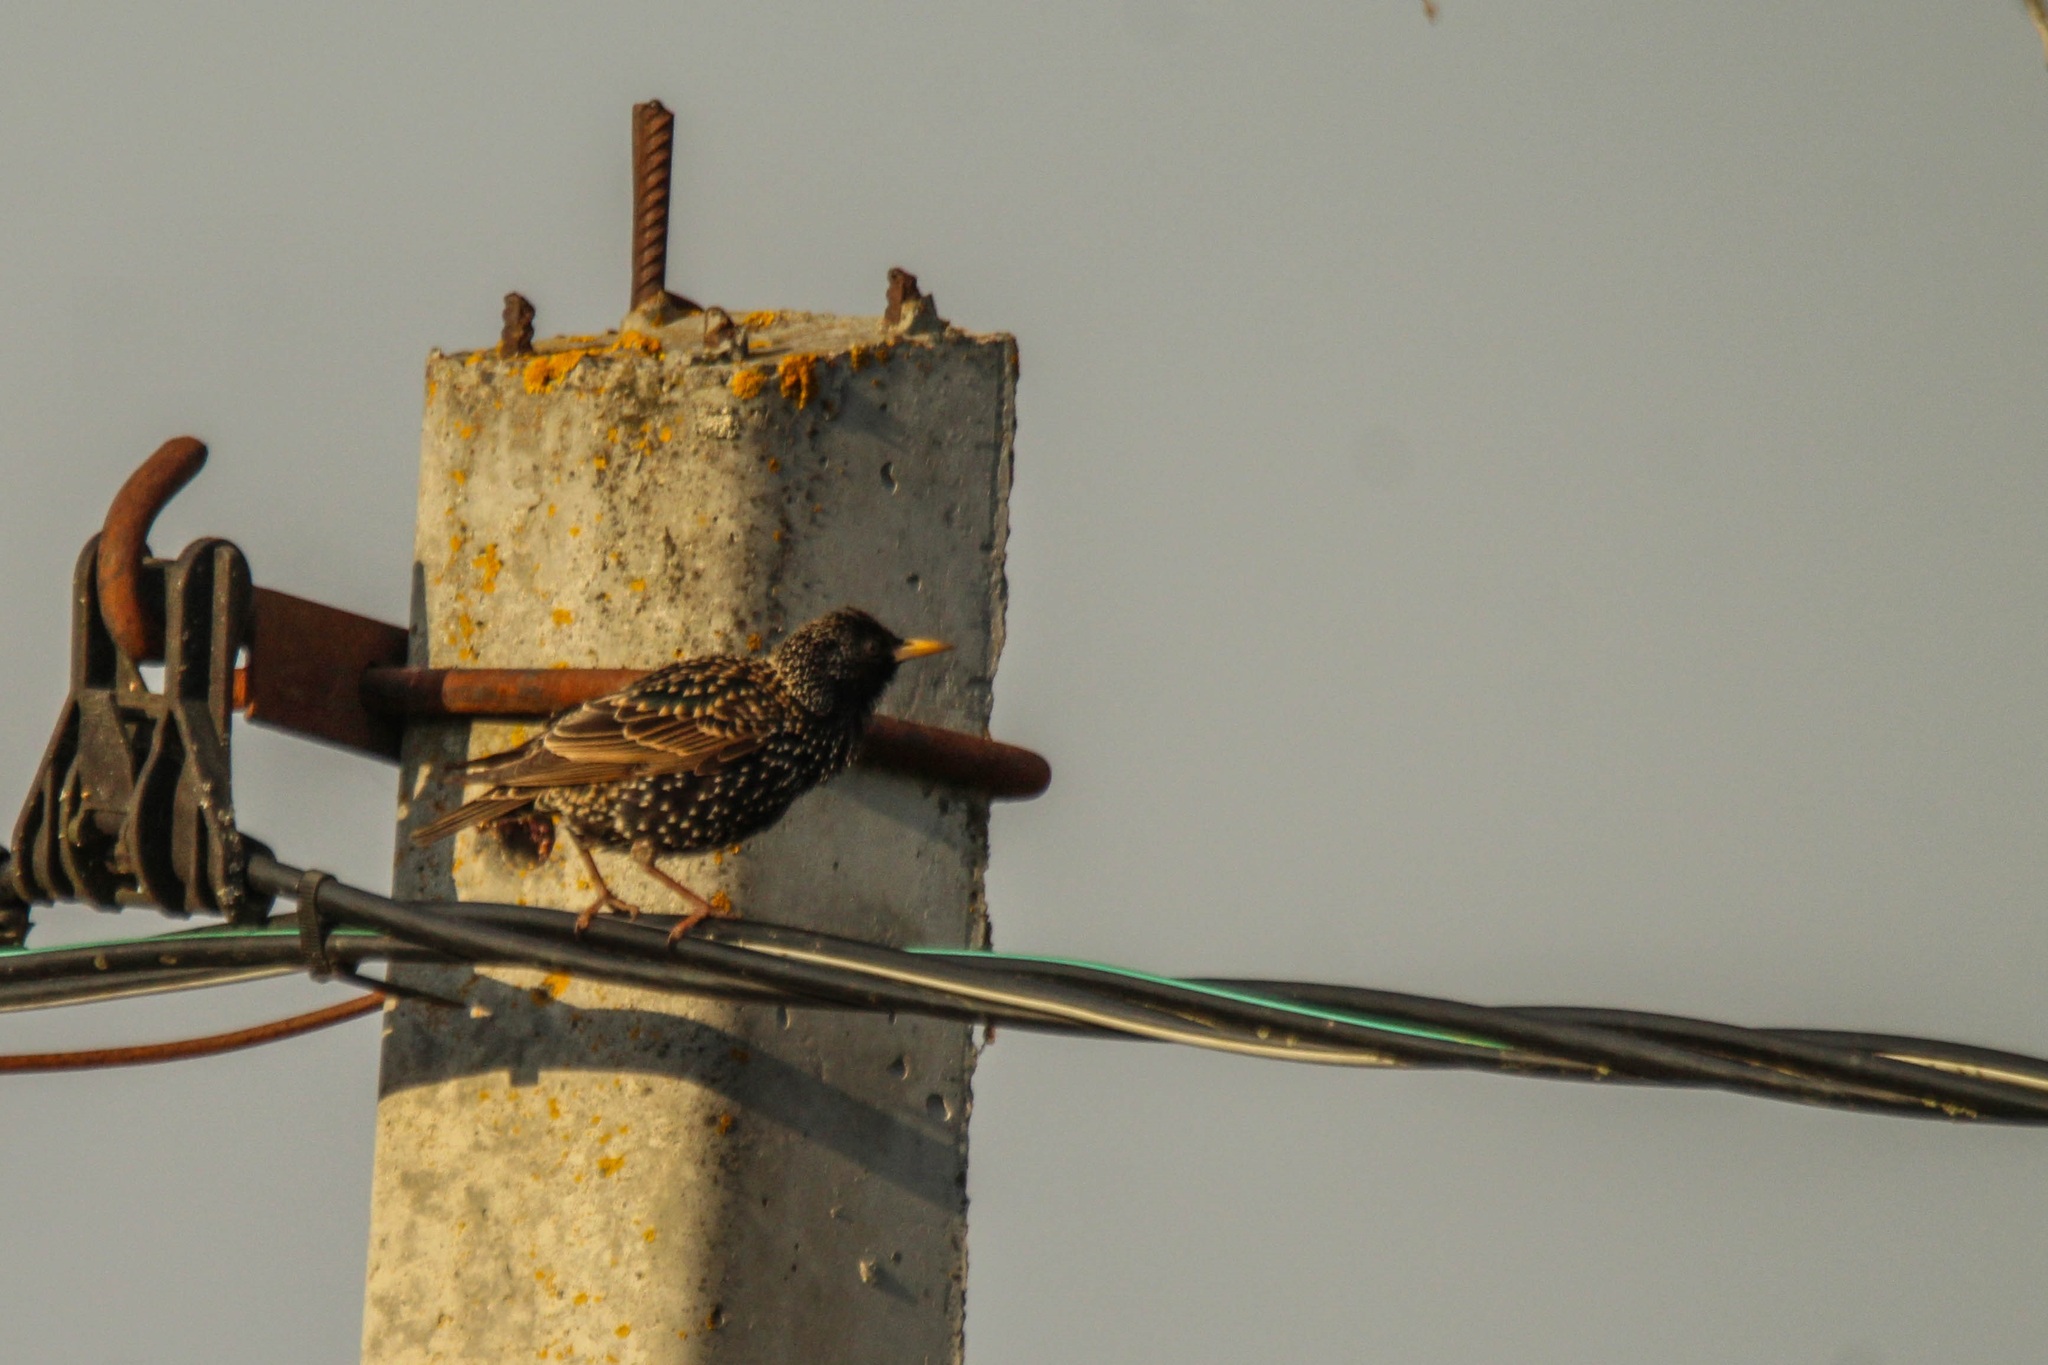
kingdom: Animalia
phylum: Chordata
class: Aves
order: Passeriformes
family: Sturnidae
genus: Sturnus
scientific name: Sturnus vulgaris
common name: Common starling
